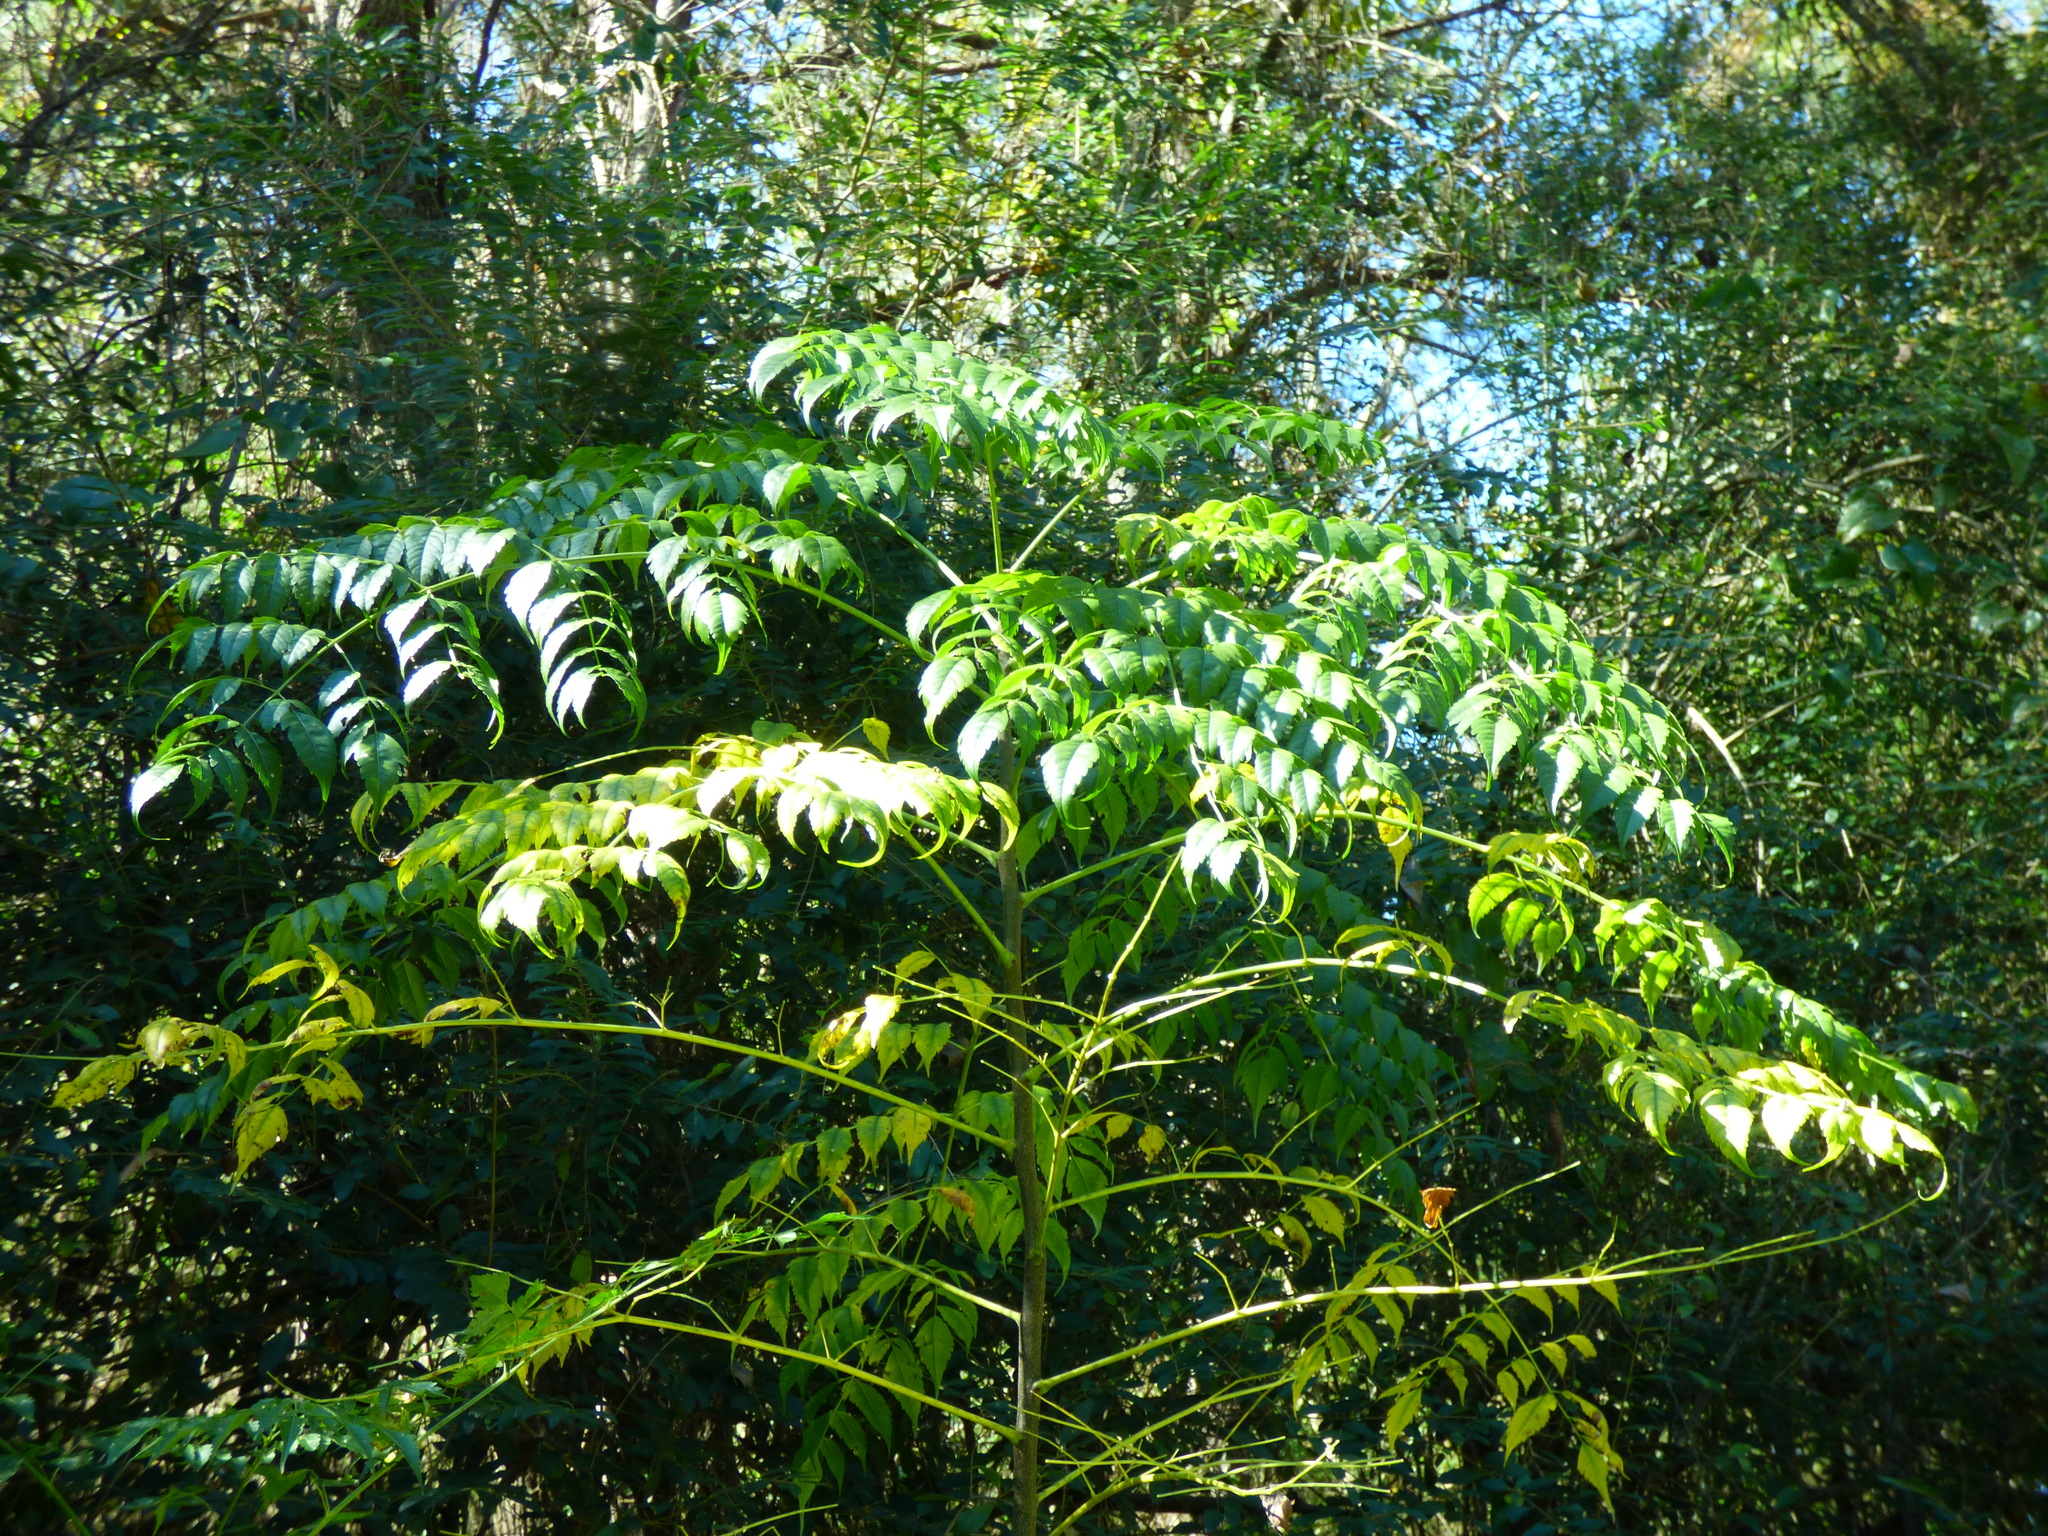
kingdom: Plantae
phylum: Tracheophyta
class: Magnoliopsida
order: Sapindales
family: Meliaceae
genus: Melia
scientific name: Melia azedarach
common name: Chinaberrytree
